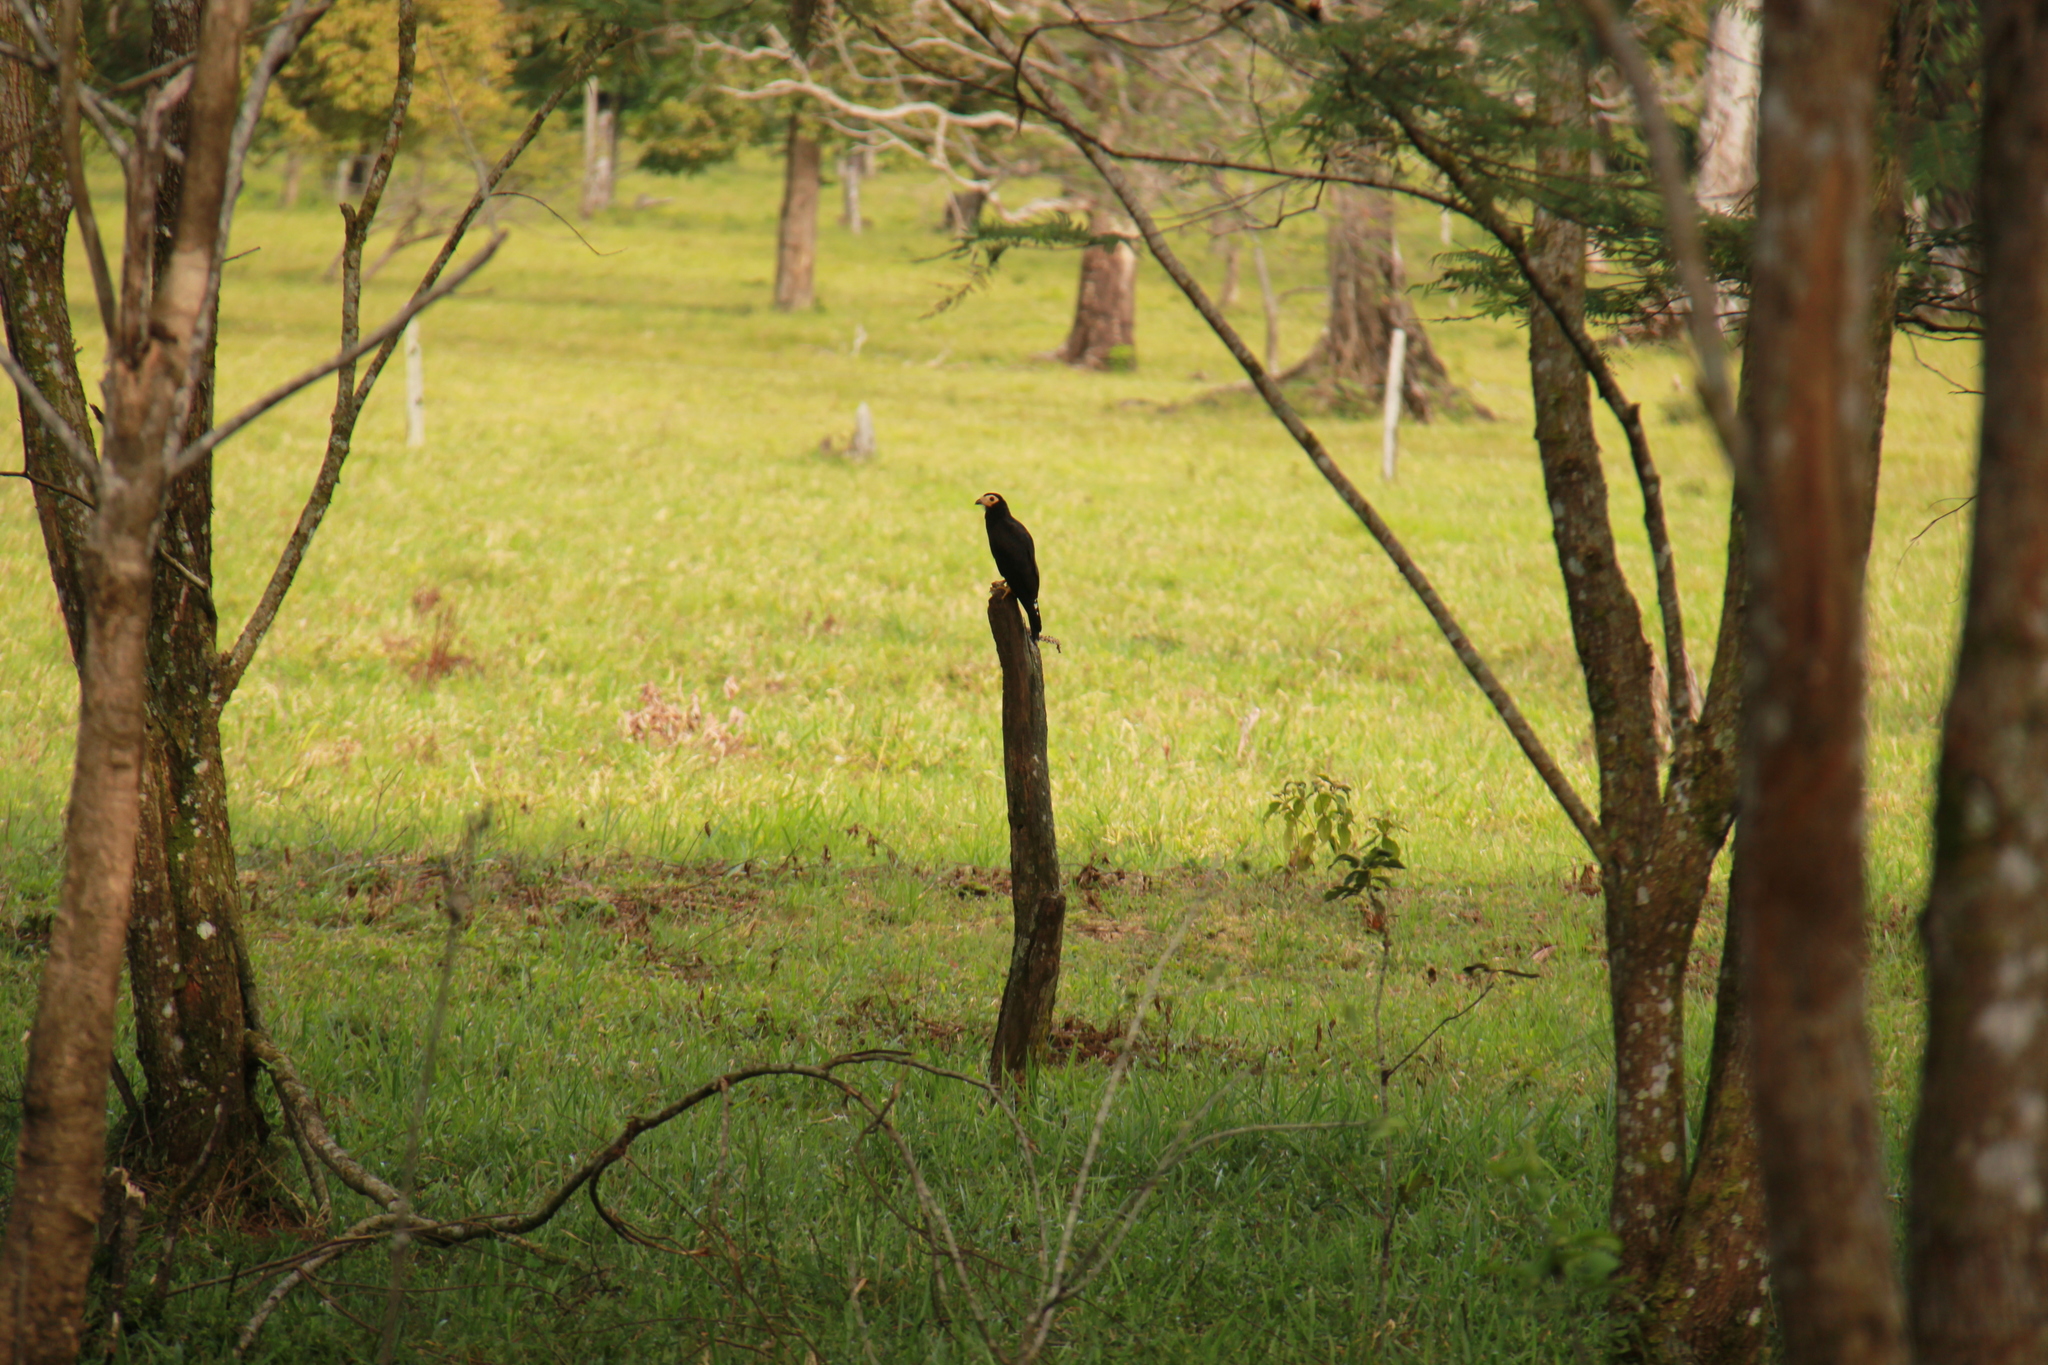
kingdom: Animalia
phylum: Chordata
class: Aves
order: Falconiformes
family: Falconidae
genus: Daptrius
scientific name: Daptrius ater
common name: Black caracara
